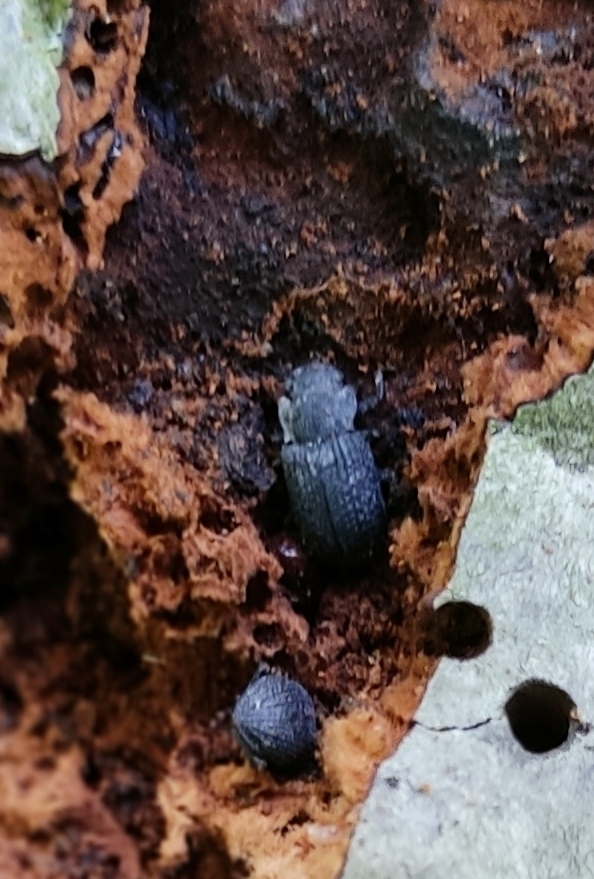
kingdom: Animalia
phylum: Arthropoda
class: Insecta
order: Coleoptera
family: Tenebrionidae
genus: Bolitophagus
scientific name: Bolitophagus reticulatus
